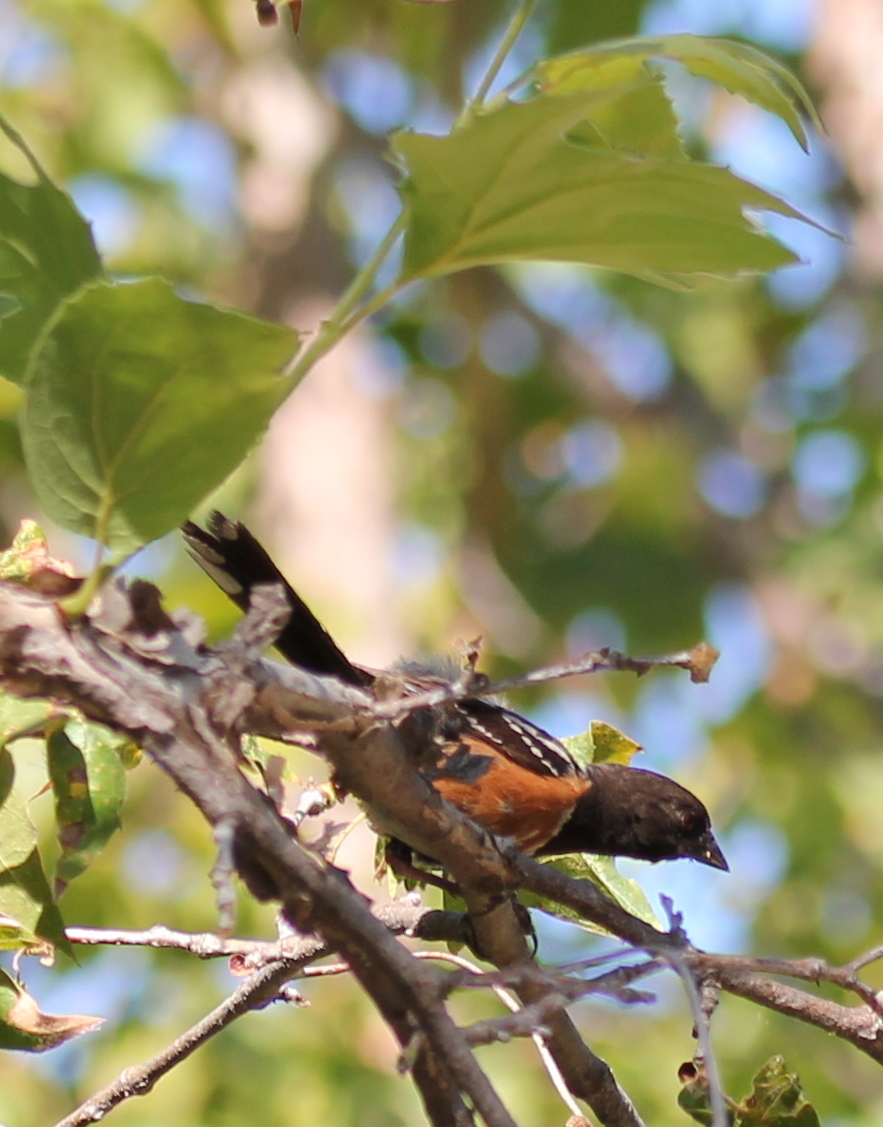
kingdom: Animalia
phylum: Chordata
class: Aves
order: Passeriformes
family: Passerellidae
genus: Pipilo
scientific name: Pipilo maculatus
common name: Spotted towhee
